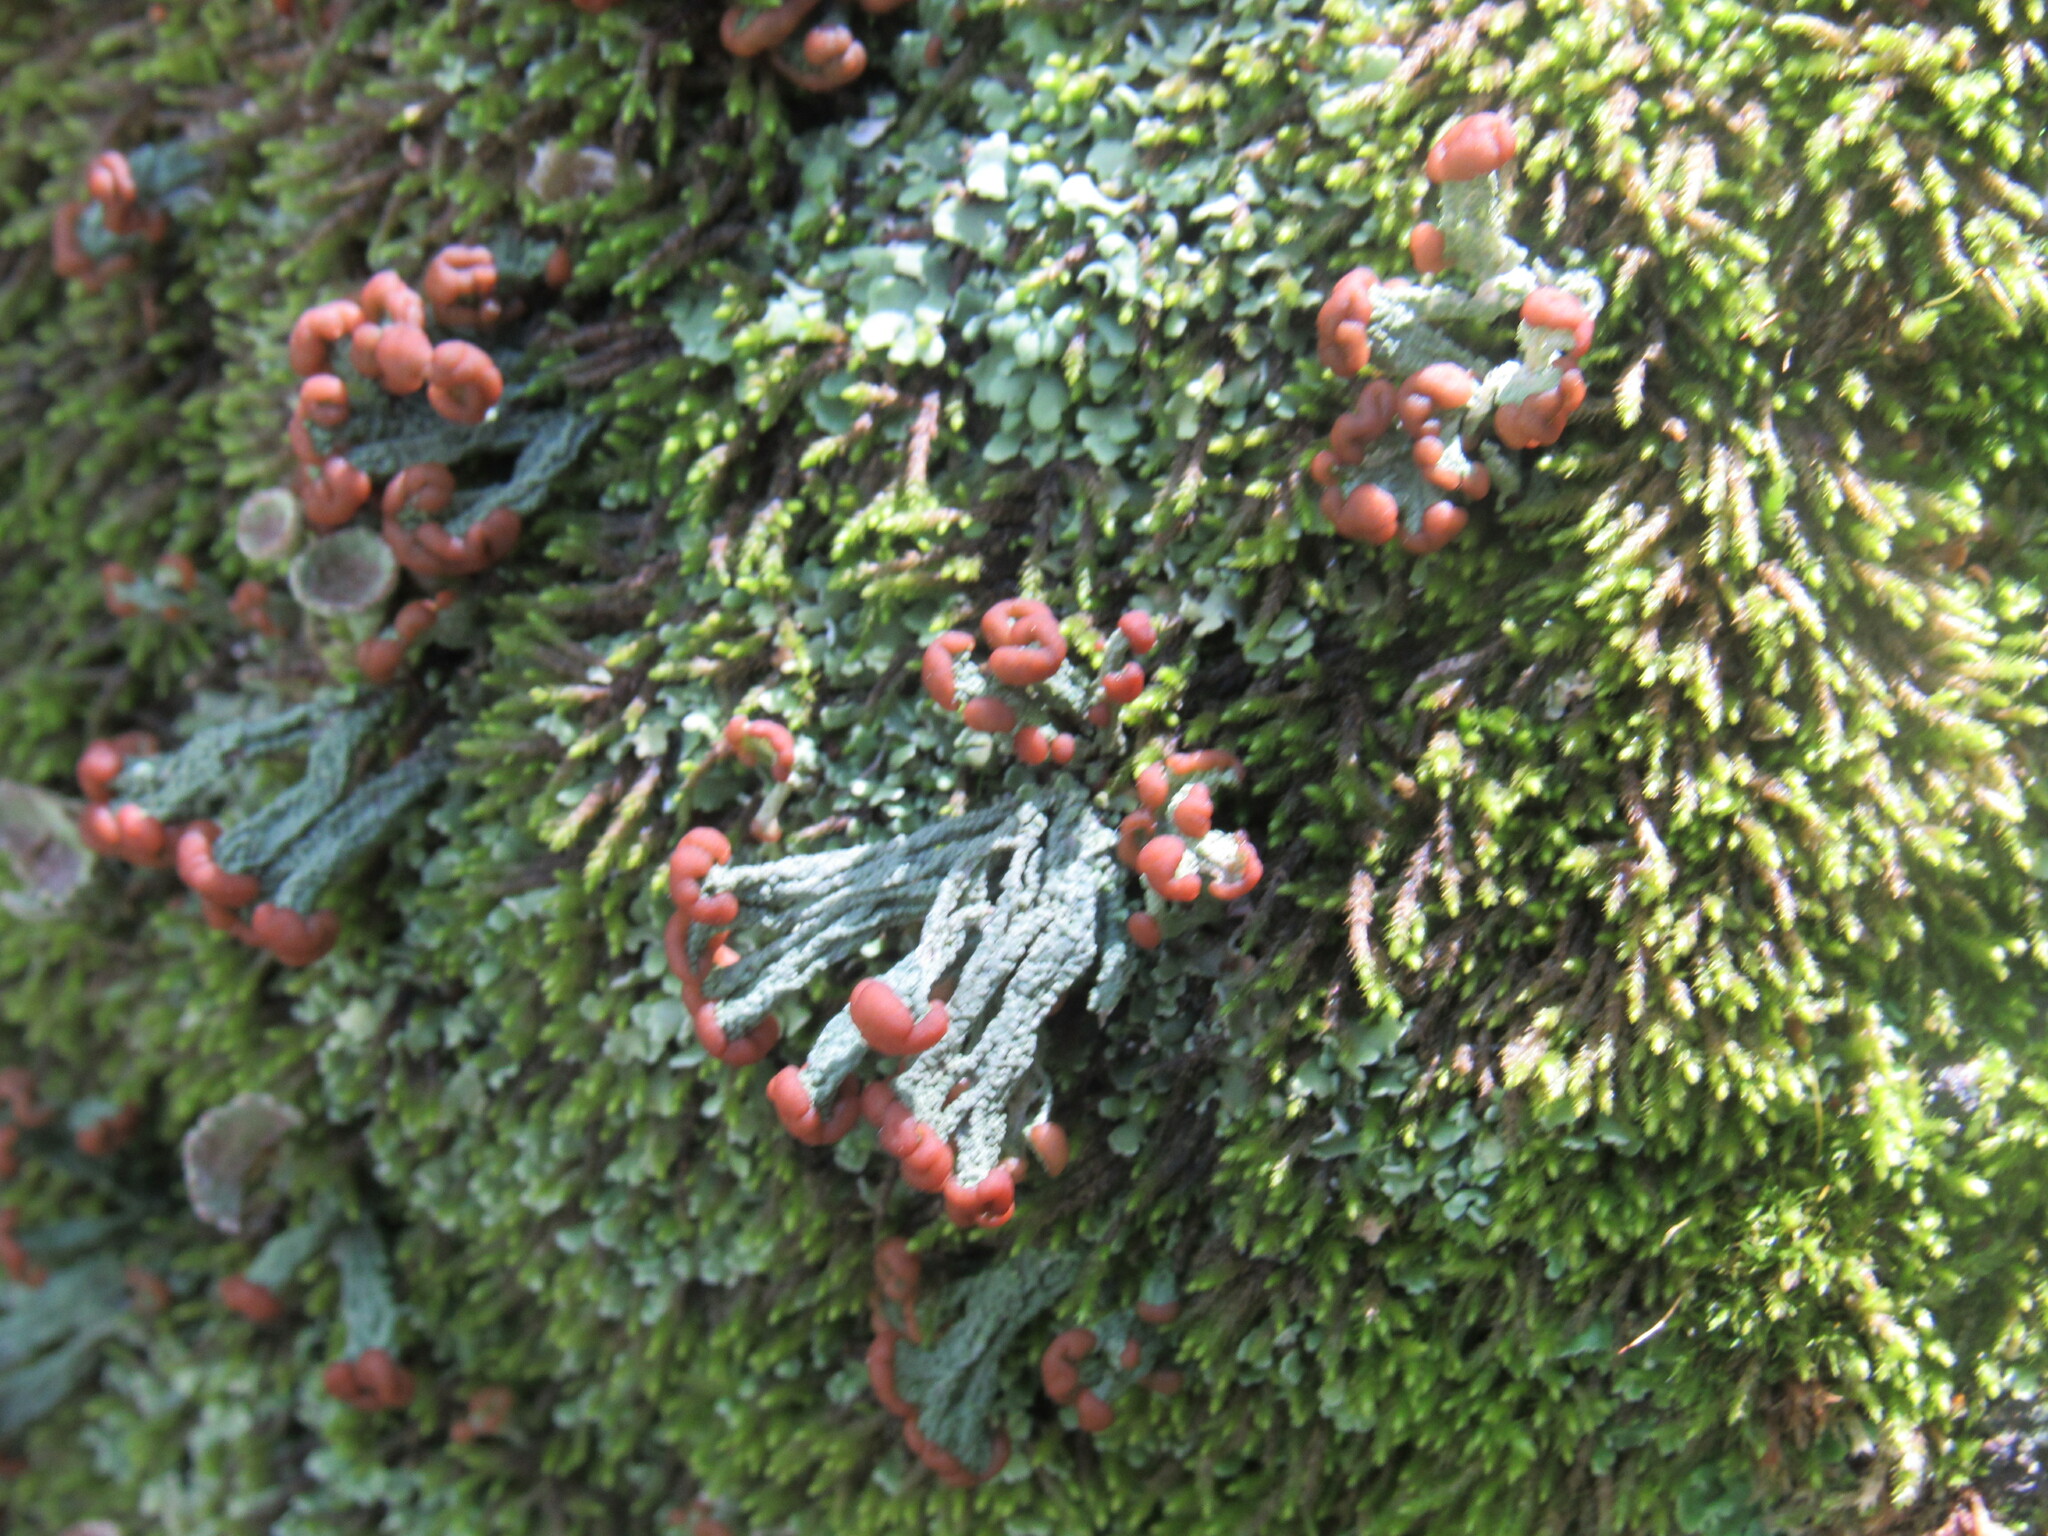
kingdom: Fungi
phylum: Ascomycota
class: Lecanoromycetes
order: Lecanorales
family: Cladoniaceae
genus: Cladonia
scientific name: Cladonia peziziformis
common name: Cup lichen
